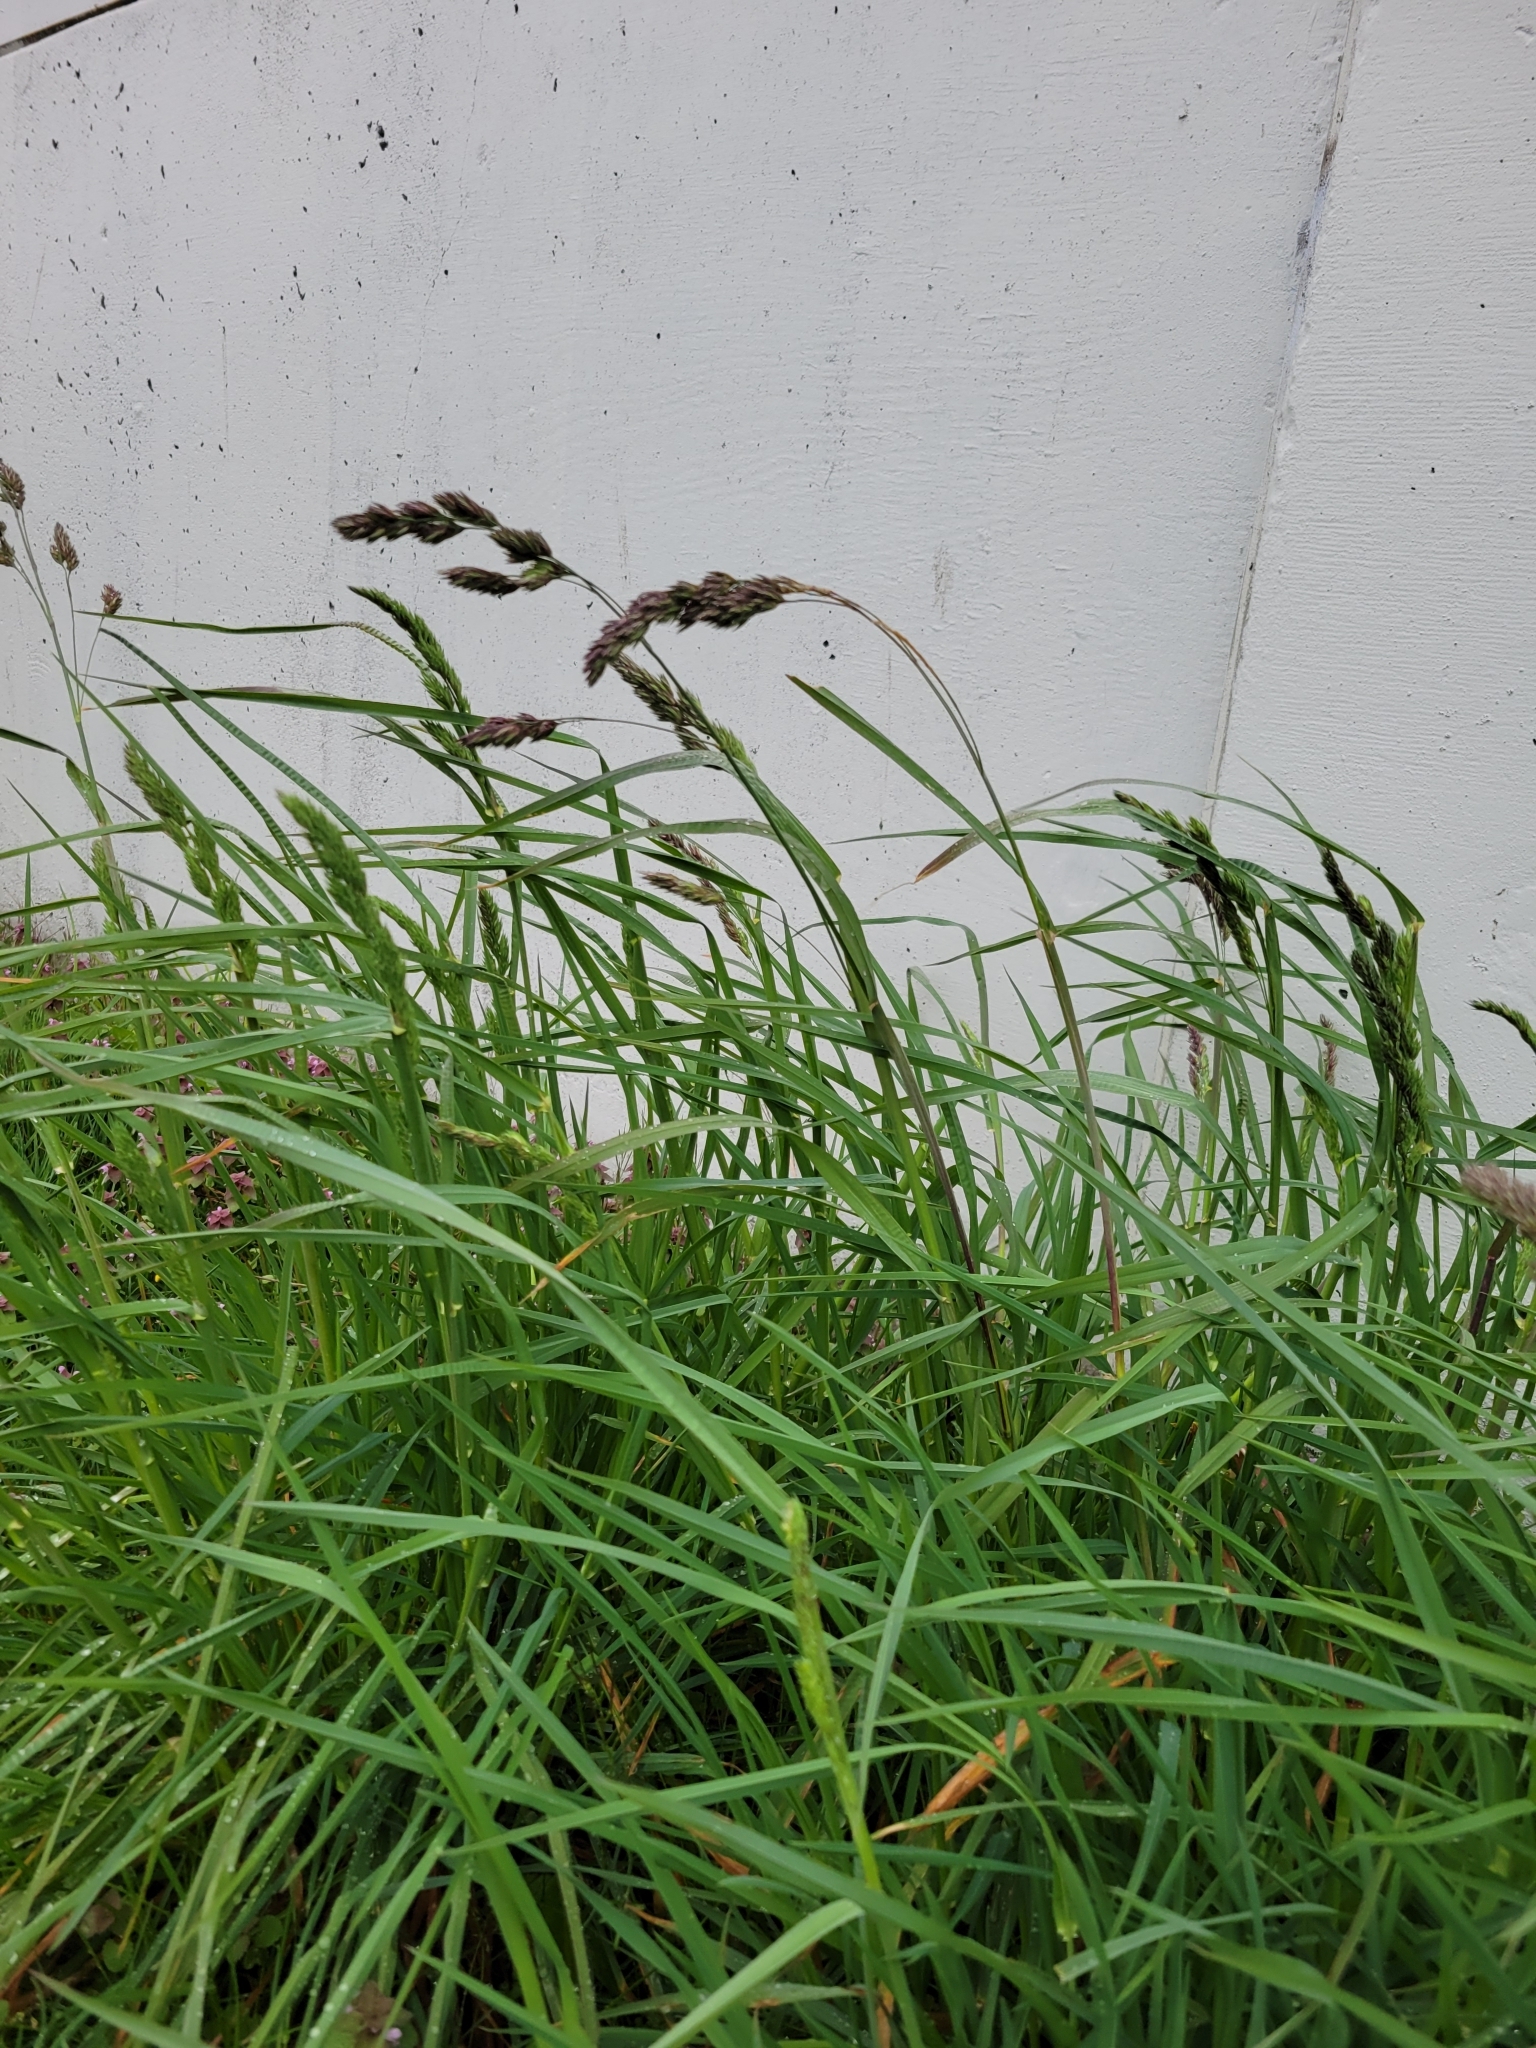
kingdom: Plantae
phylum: Tracheophyta
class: Liliopsida
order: Poales
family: Poaceae
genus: Dactylis
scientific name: Dactylis glomerata
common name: Orchardgrass
